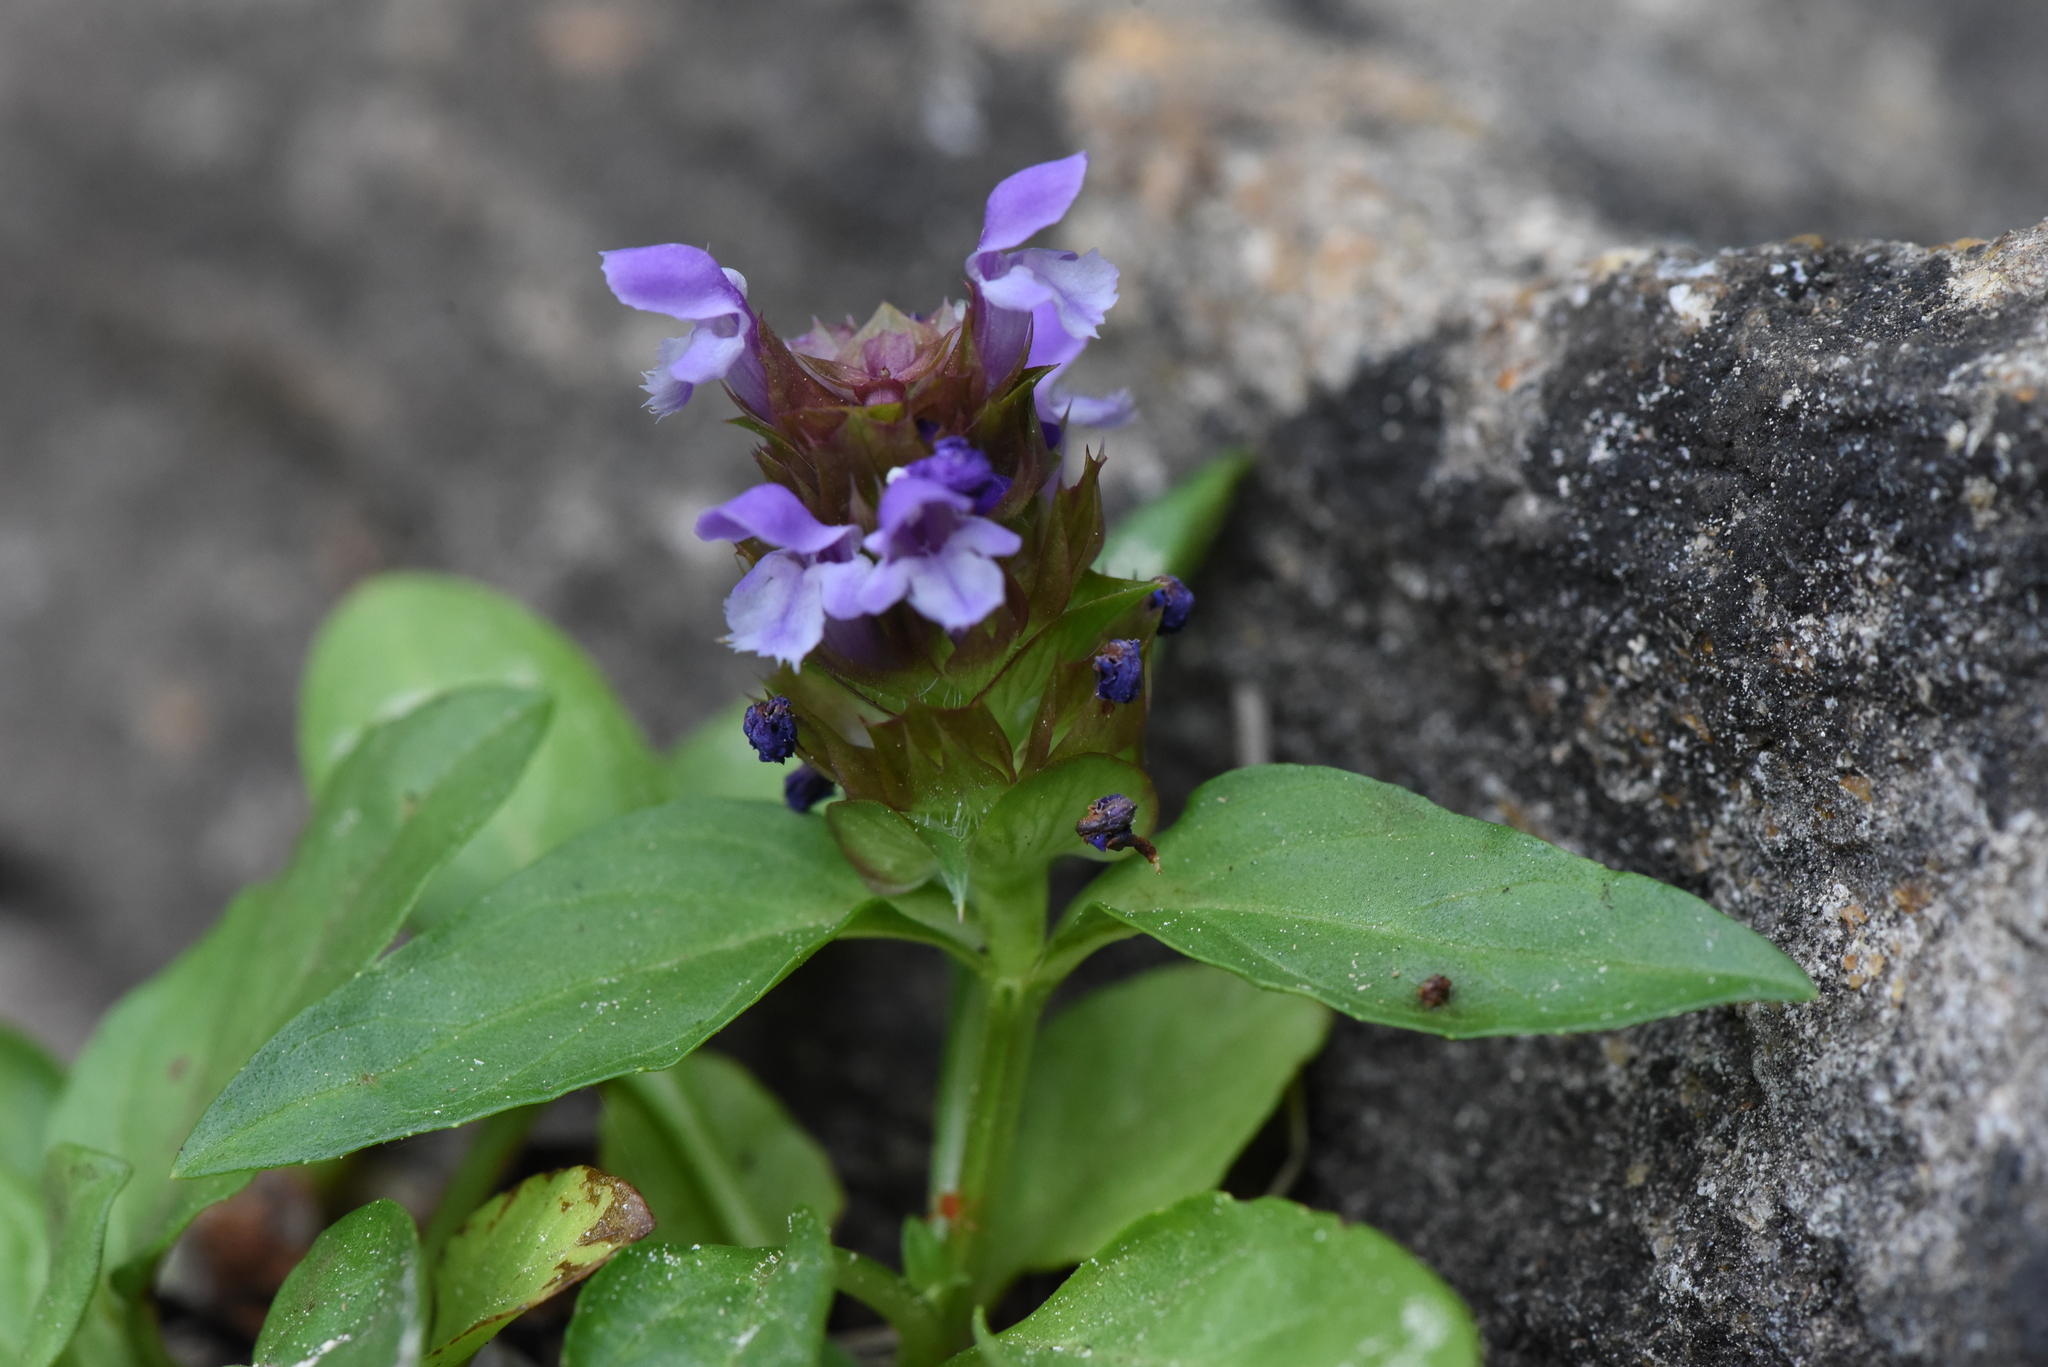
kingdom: Plantae
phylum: Tracheophyta
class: Magnoliopsida
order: Lamiales
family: Lamiaceae
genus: Prunella
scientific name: Prunella vulgaris
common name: Heal-all
